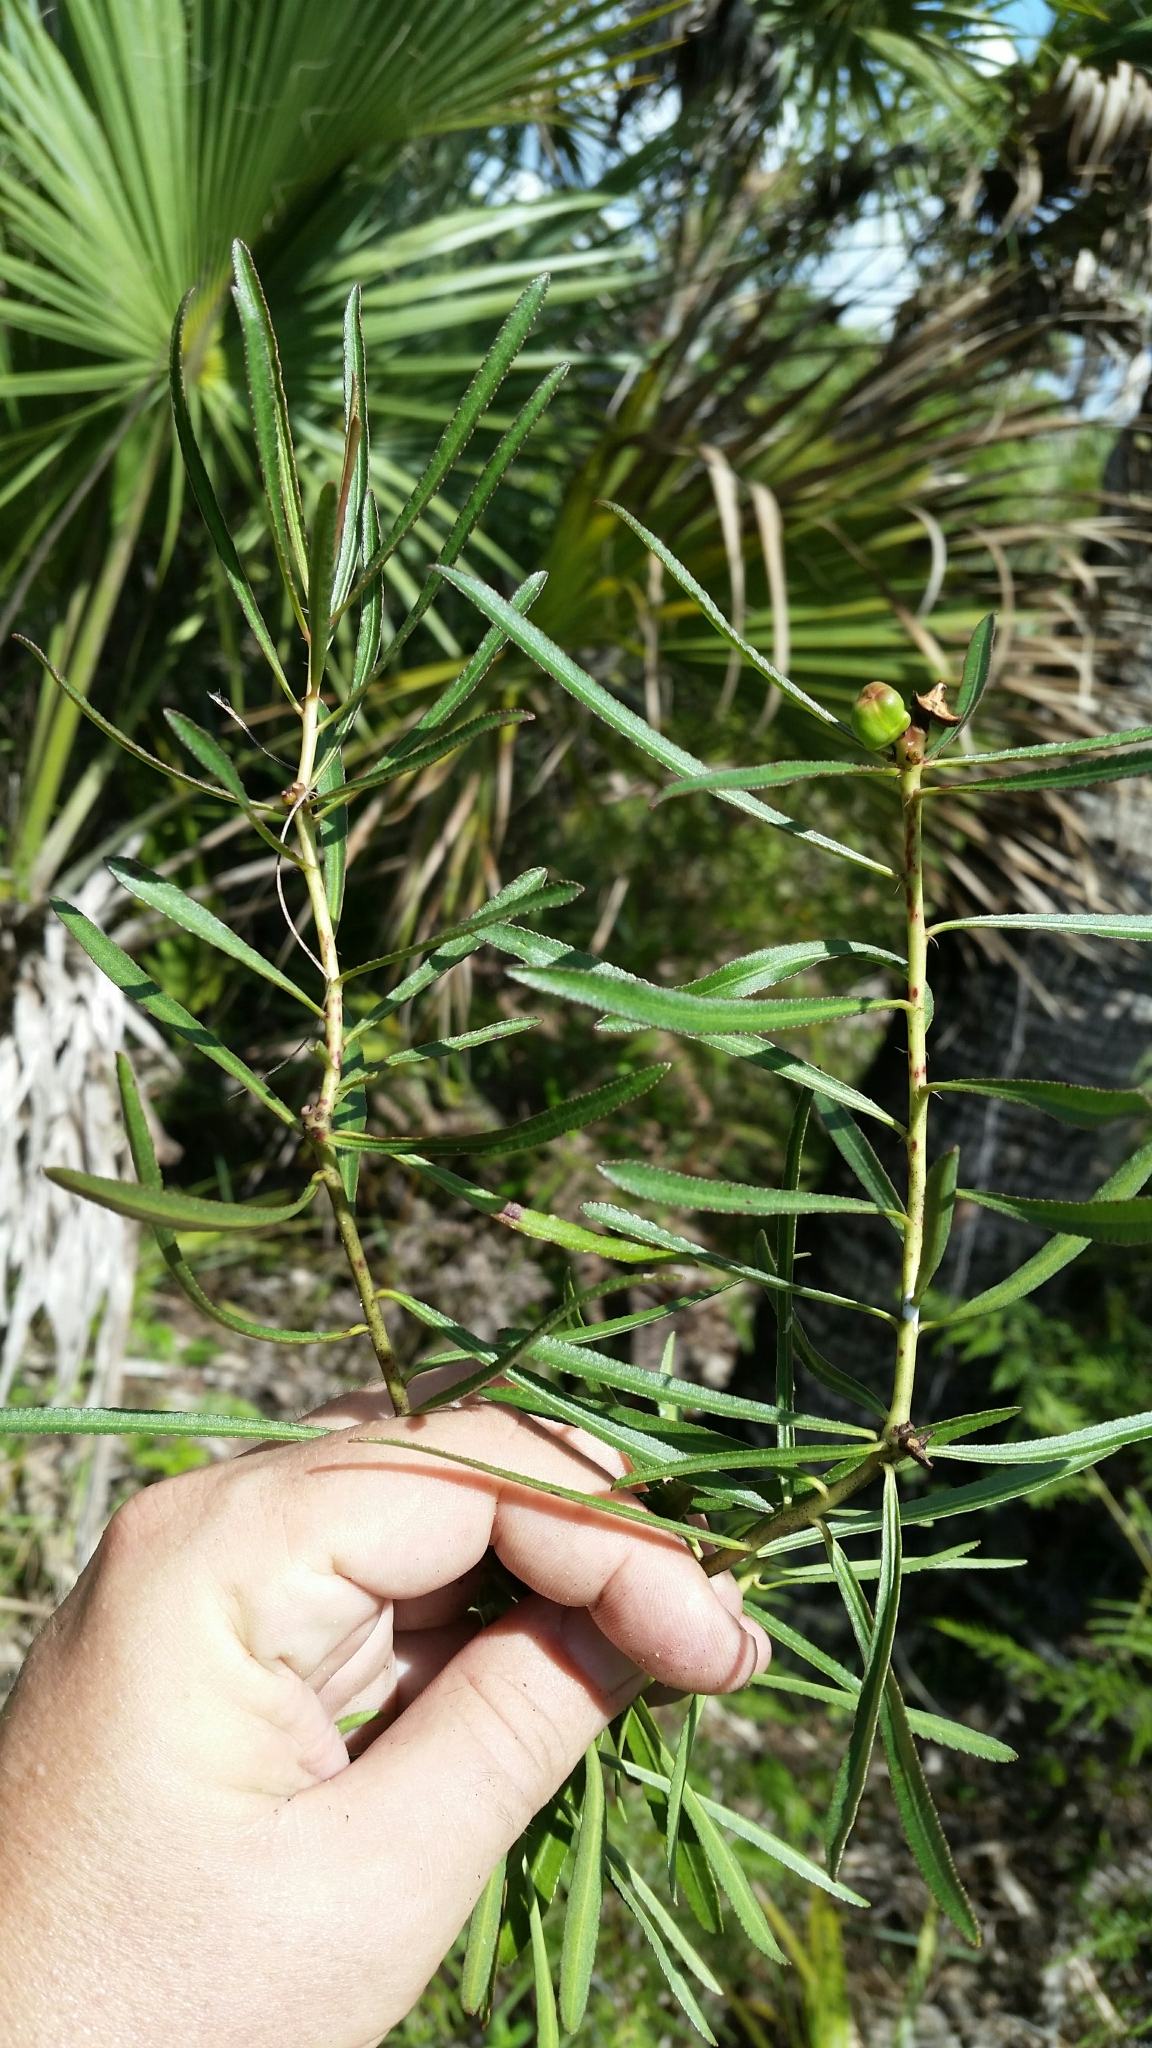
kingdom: Plantae
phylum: Tracheophyta
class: Magnoliopsida
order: Malpighiales
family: Euphorbiaceae
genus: Stillingia
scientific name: Stillingia sylvatica
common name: Queen's-delight
